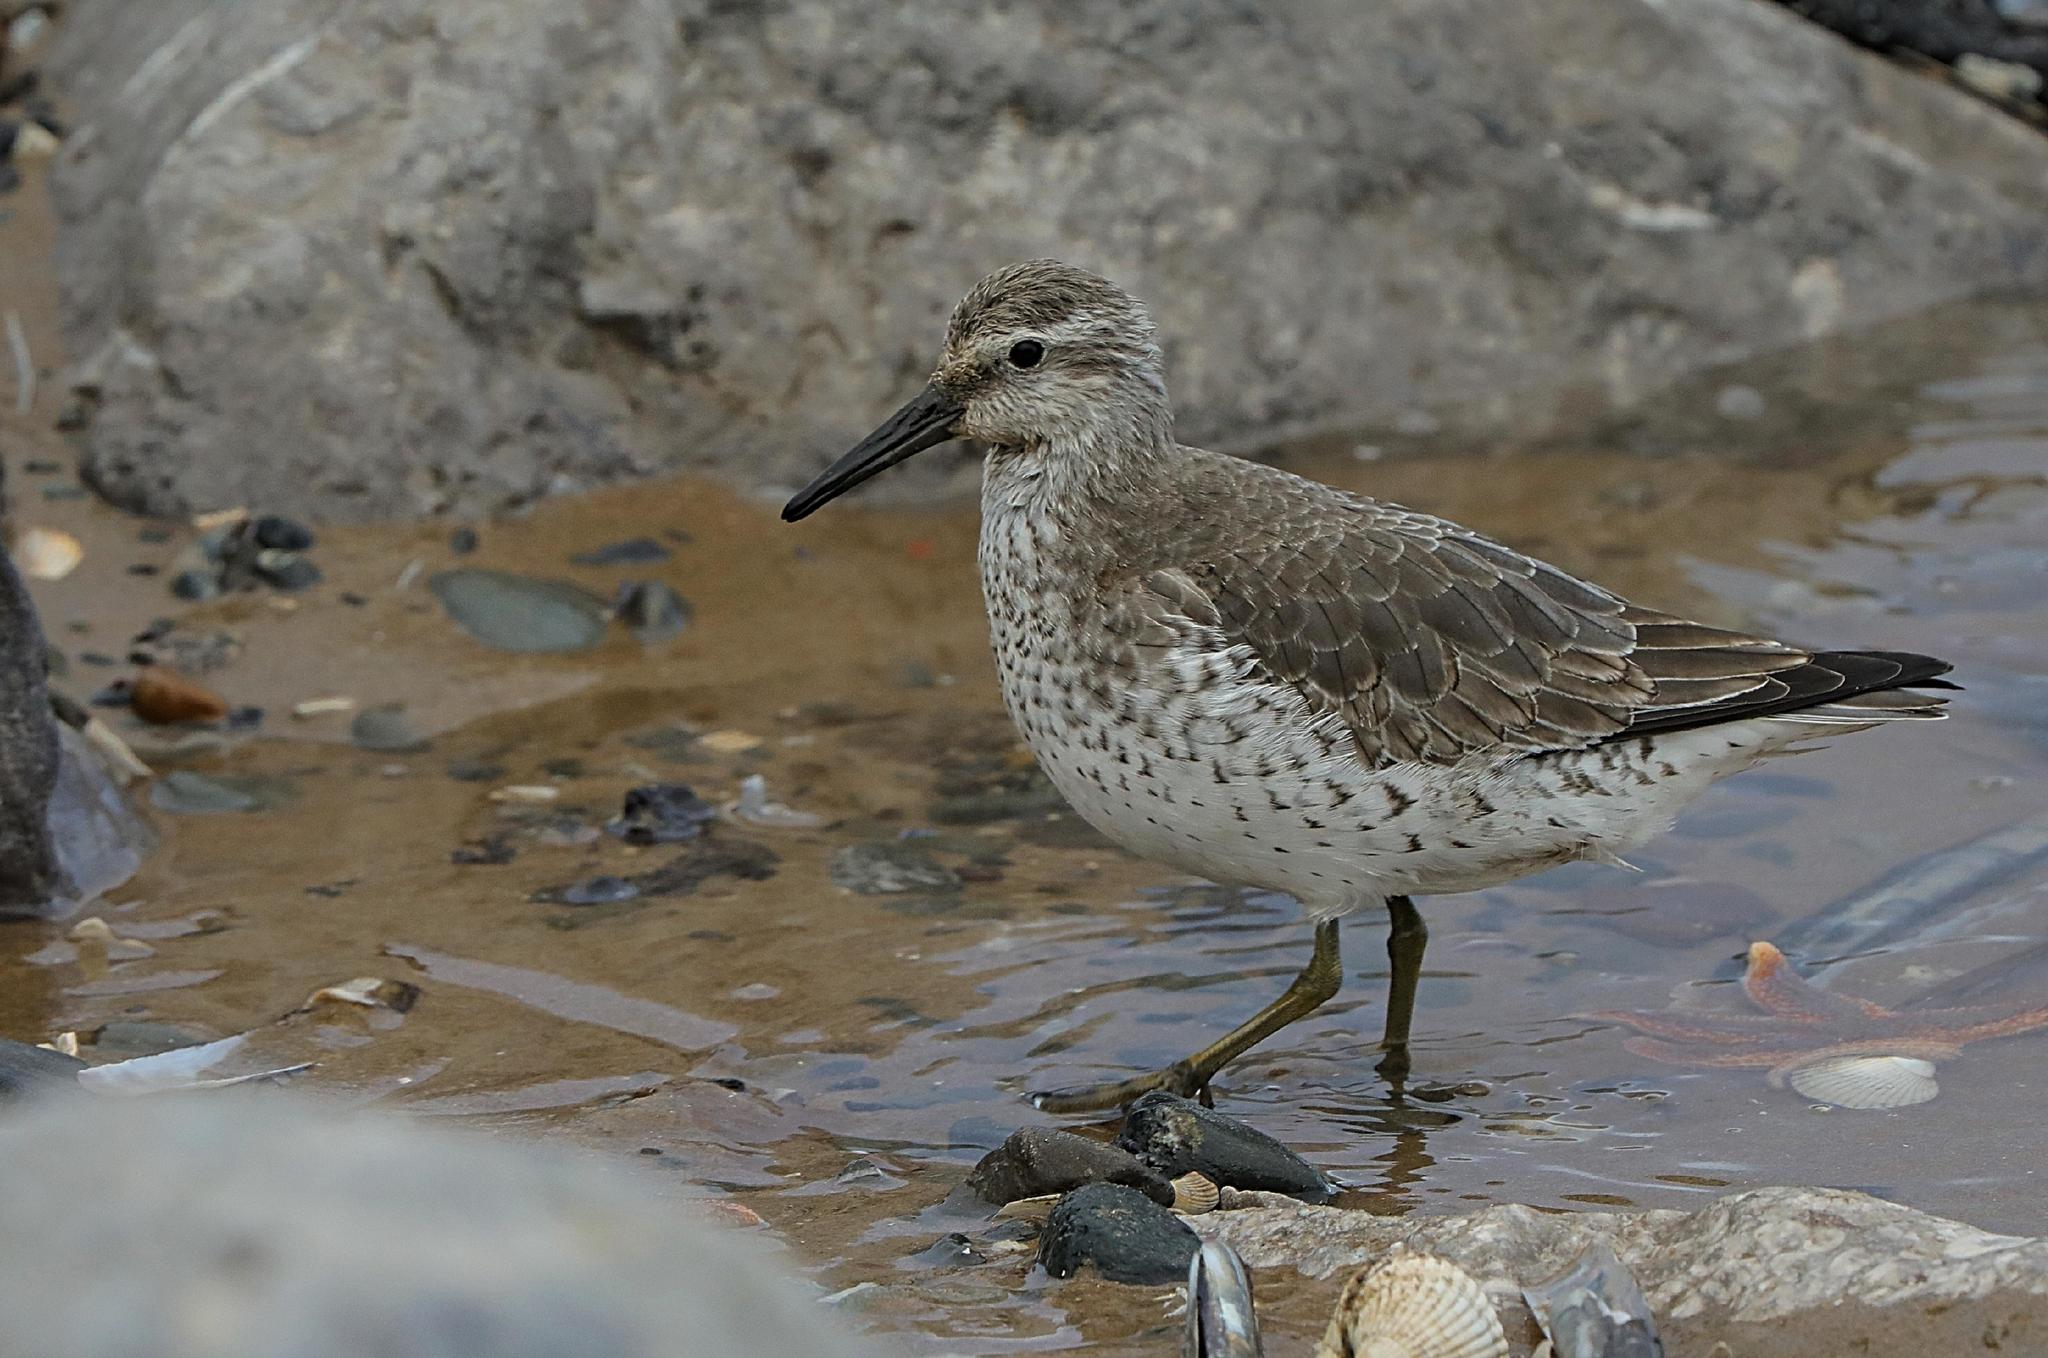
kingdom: Animalia
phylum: Chordata
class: Aves
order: Charadriiformes
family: Scolopacidae
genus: Calidris
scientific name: Calidris canutus
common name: Red knot
